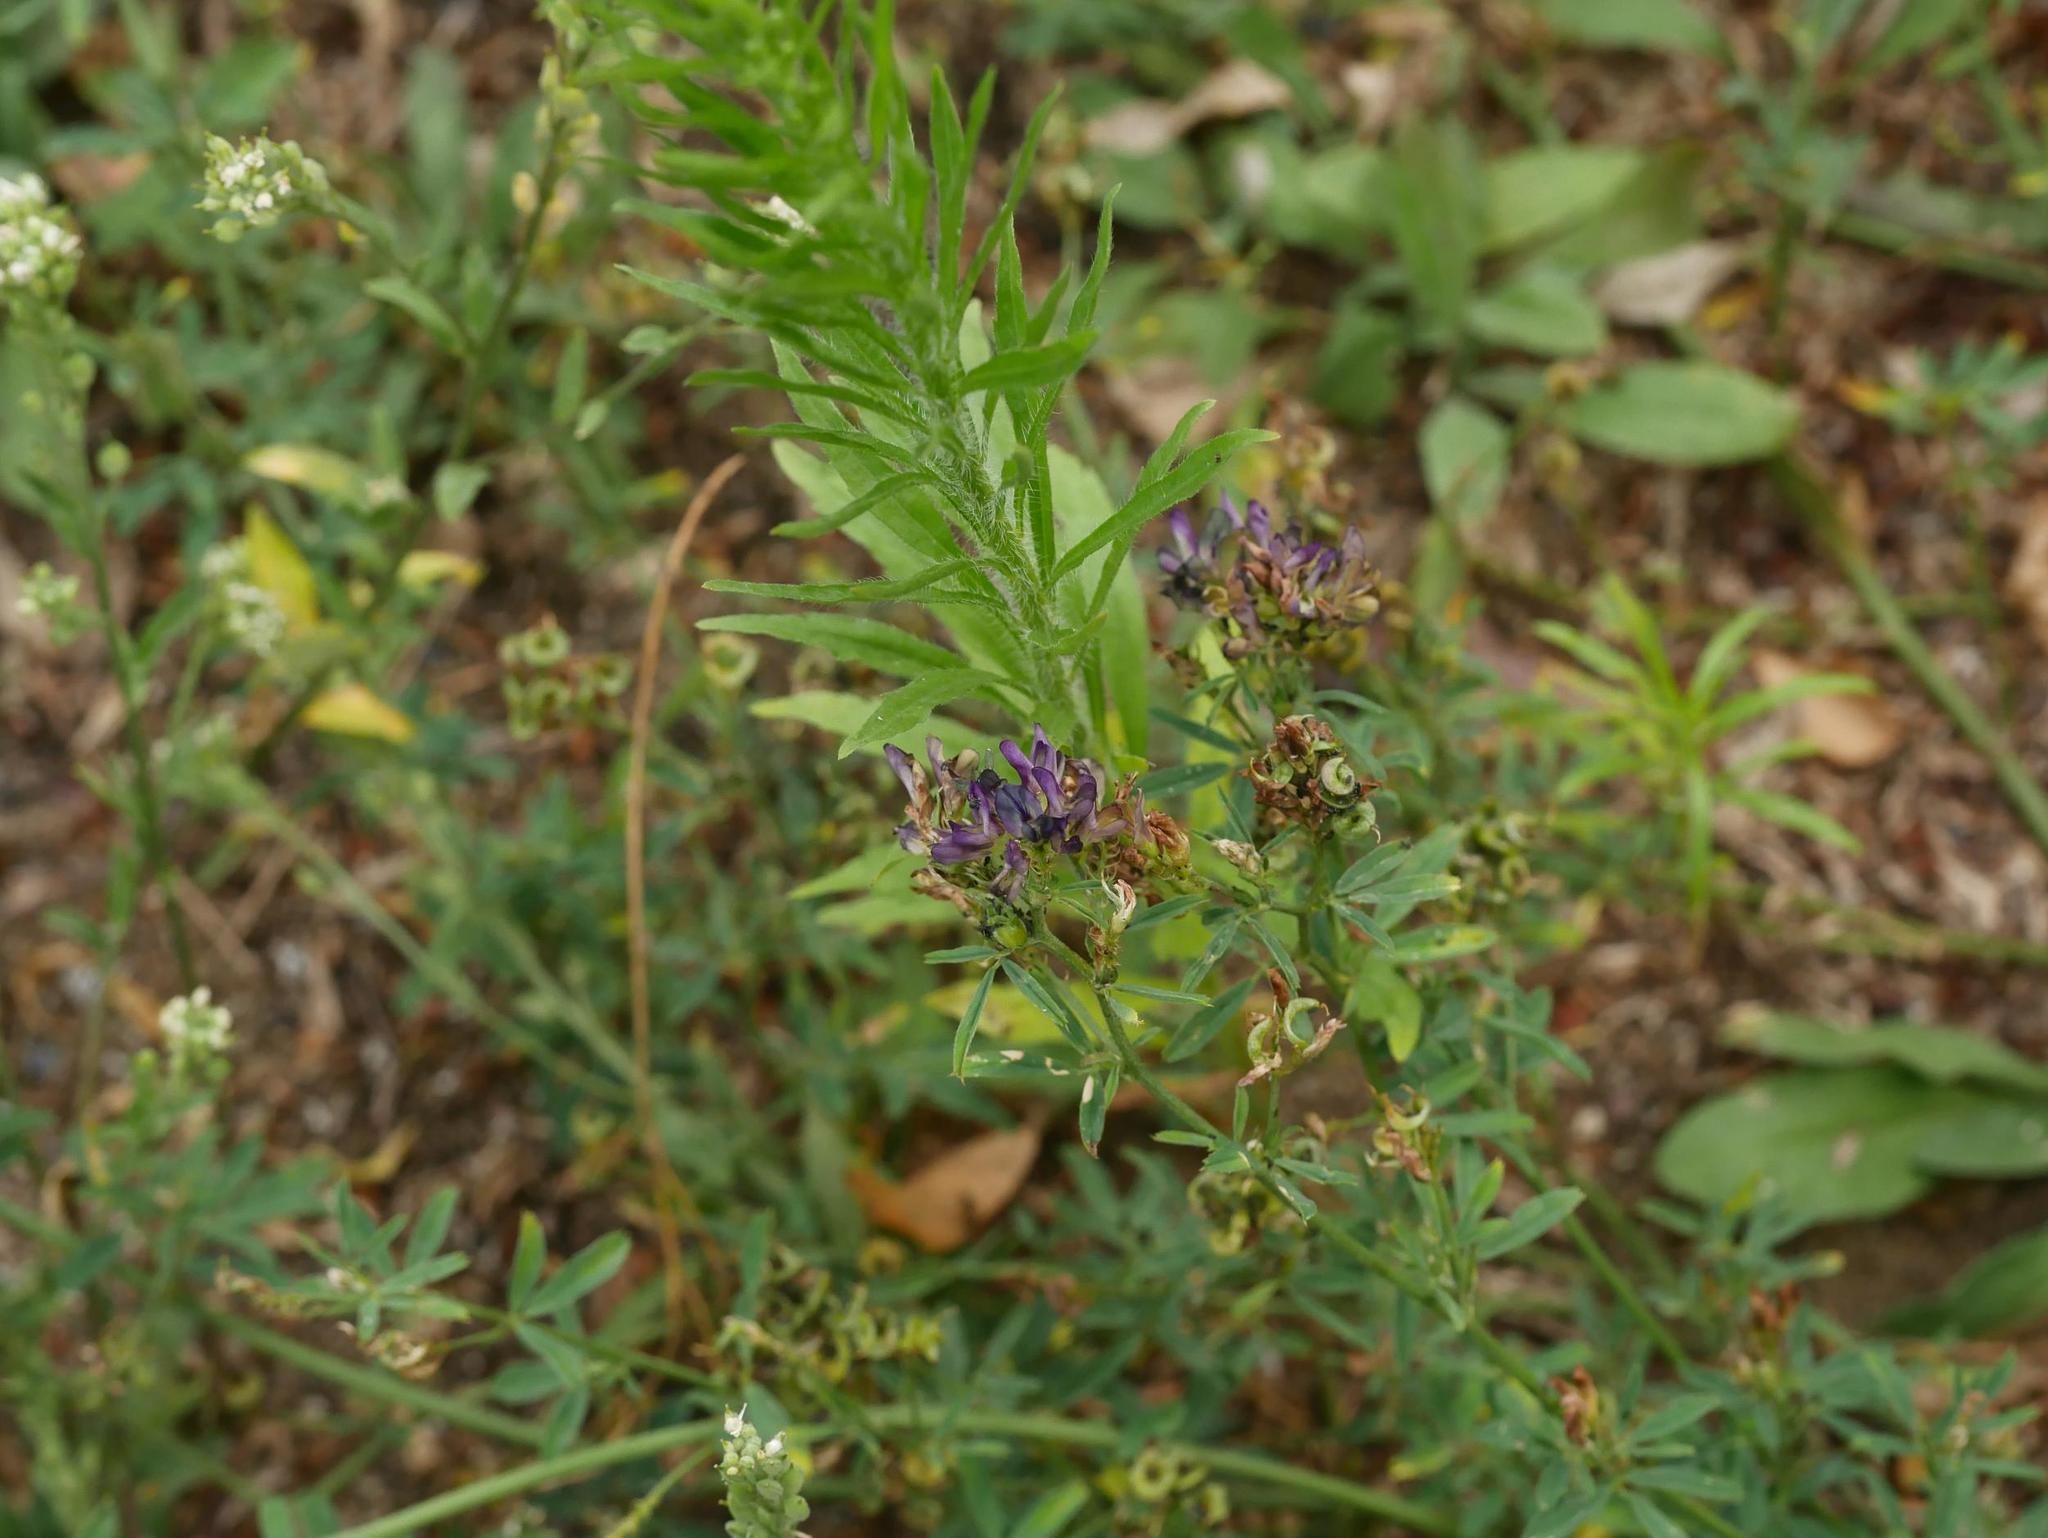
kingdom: Plantae
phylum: Tracheophyta
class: Magnoliopsida
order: Fabales
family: Fabaceae
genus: Medicago
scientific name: Medicago varia
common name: Sand lucerne
